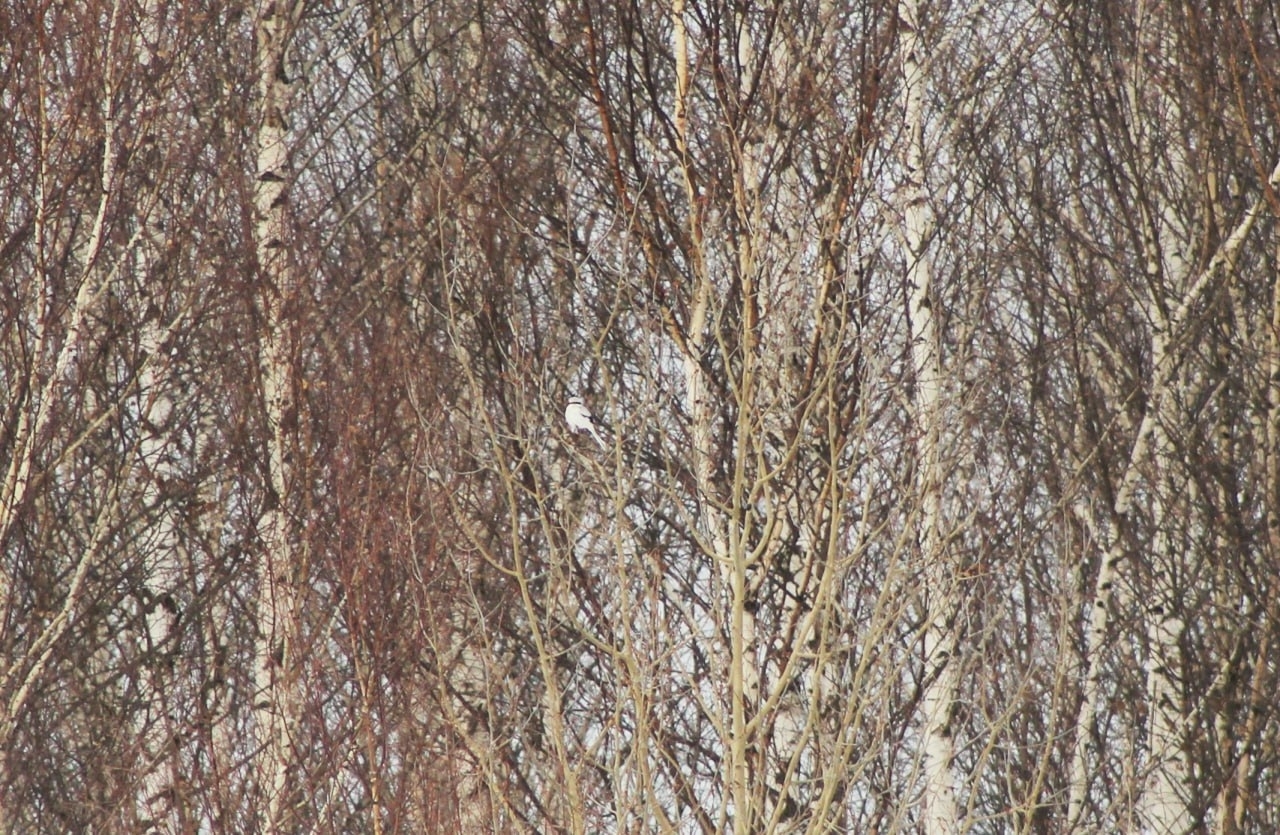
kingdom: Animalia
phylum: Chordata
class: Aves
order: Passeriformes
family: Laniidae
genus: Lanius
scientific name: Lanius excubitor
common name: Great grey shrike
